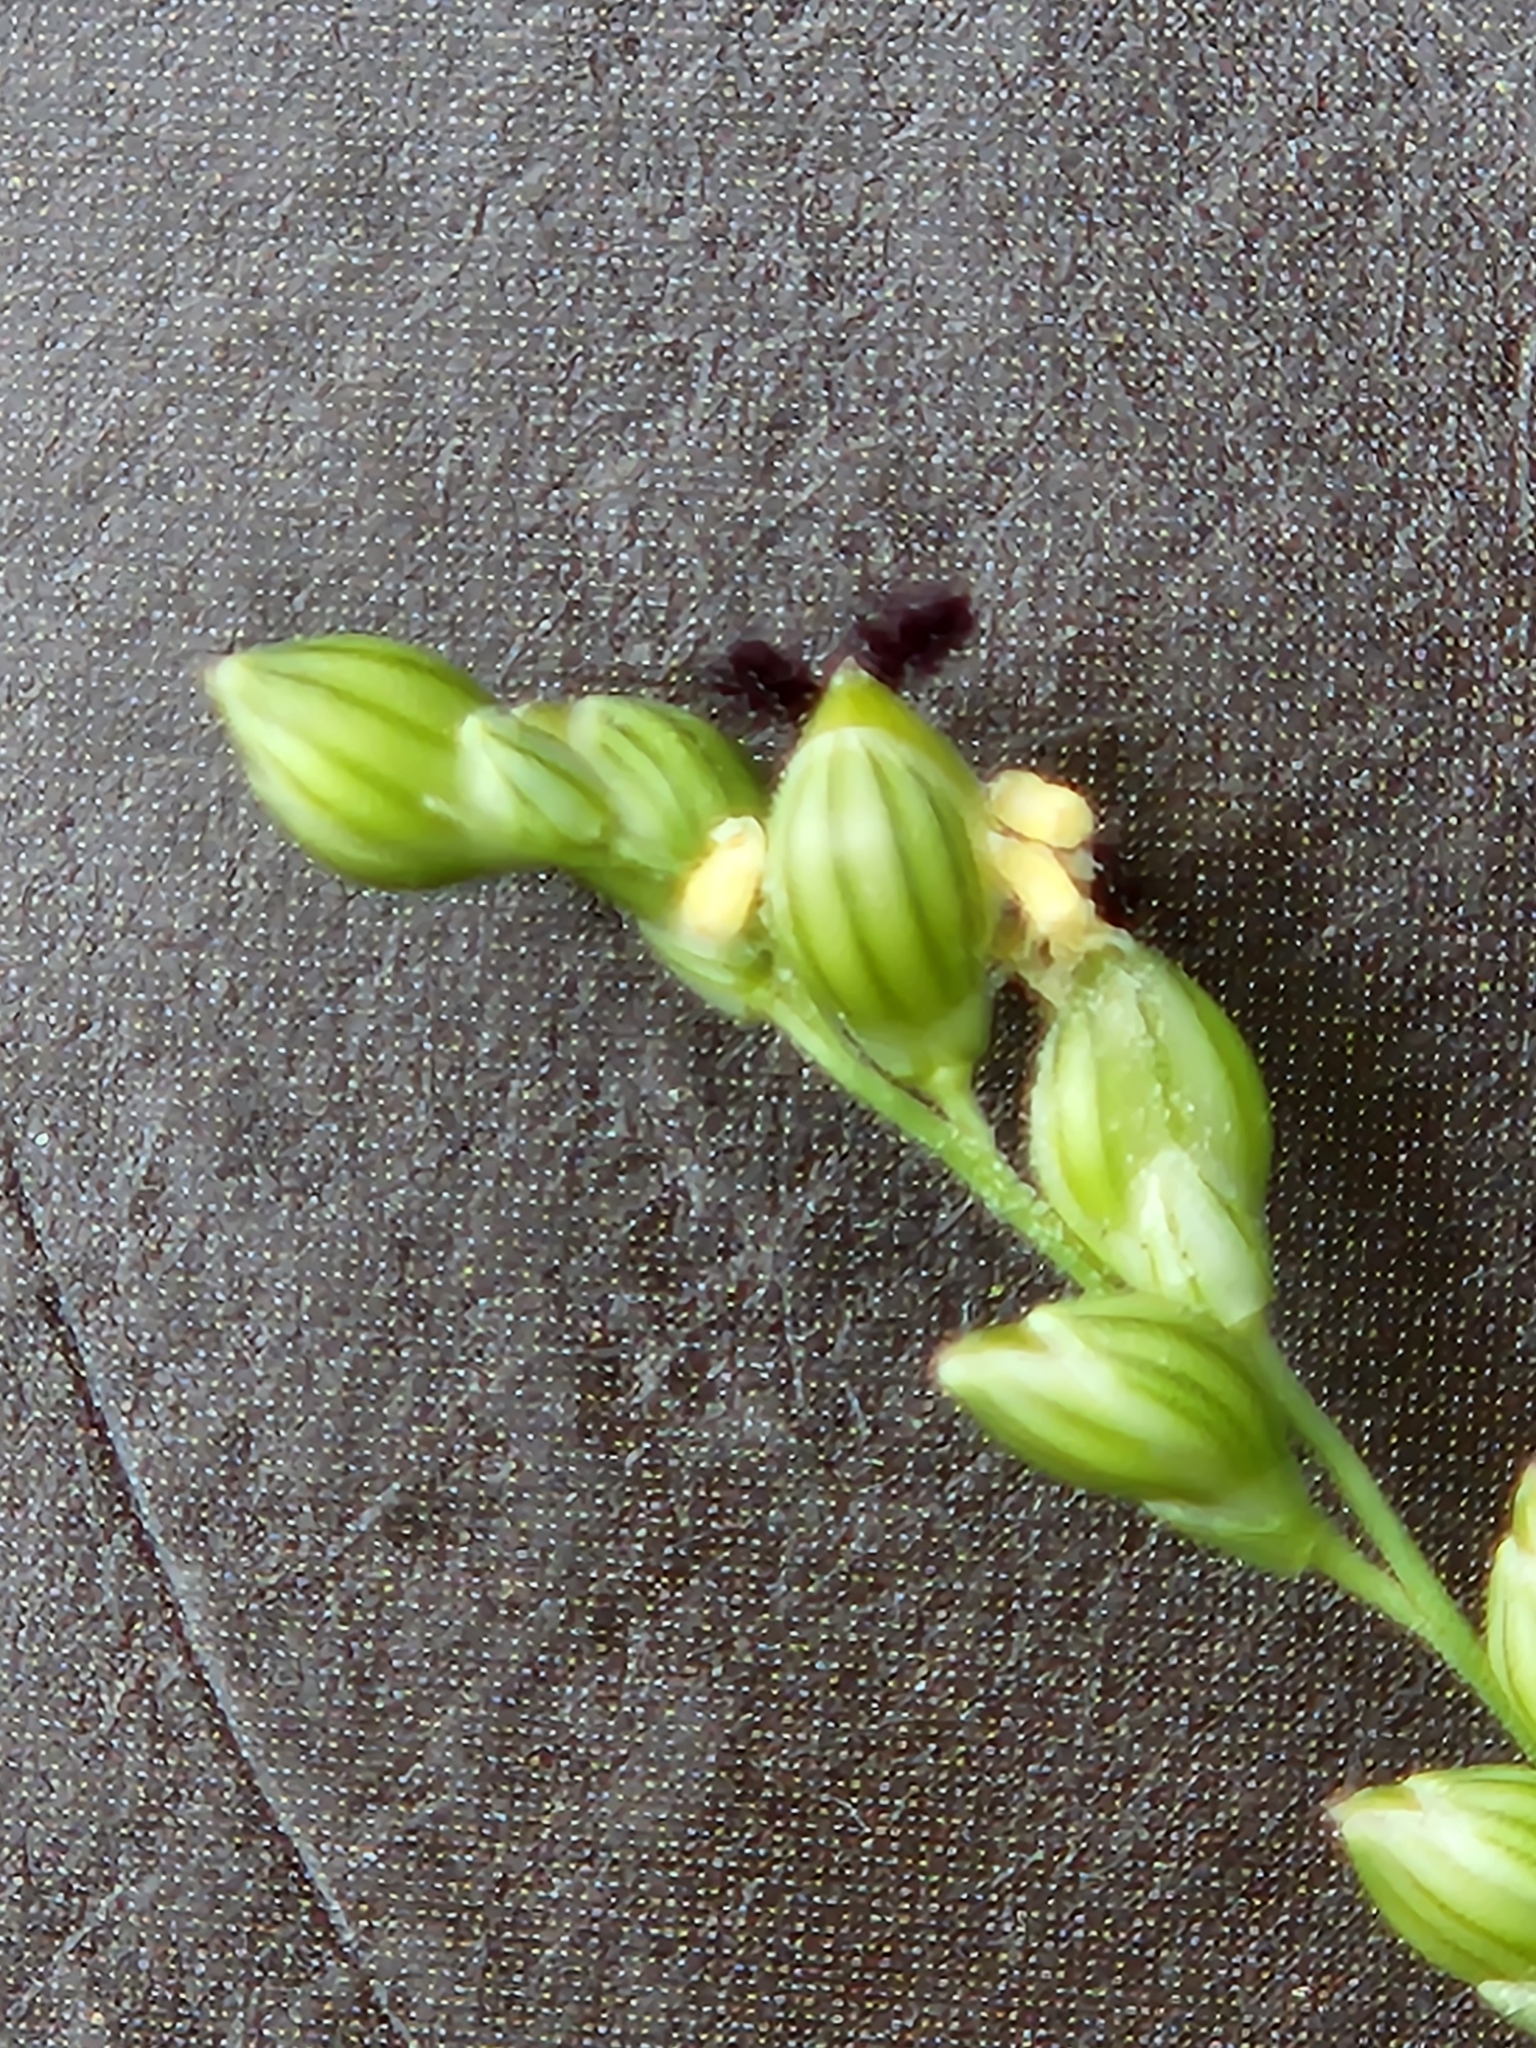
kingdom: Plantae
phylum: Tracheophyta
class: Liliopsida
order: Poales
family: Poaceae
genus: Setaria
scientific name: Setaria reverchonii
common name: Reverchon's bristle grass
